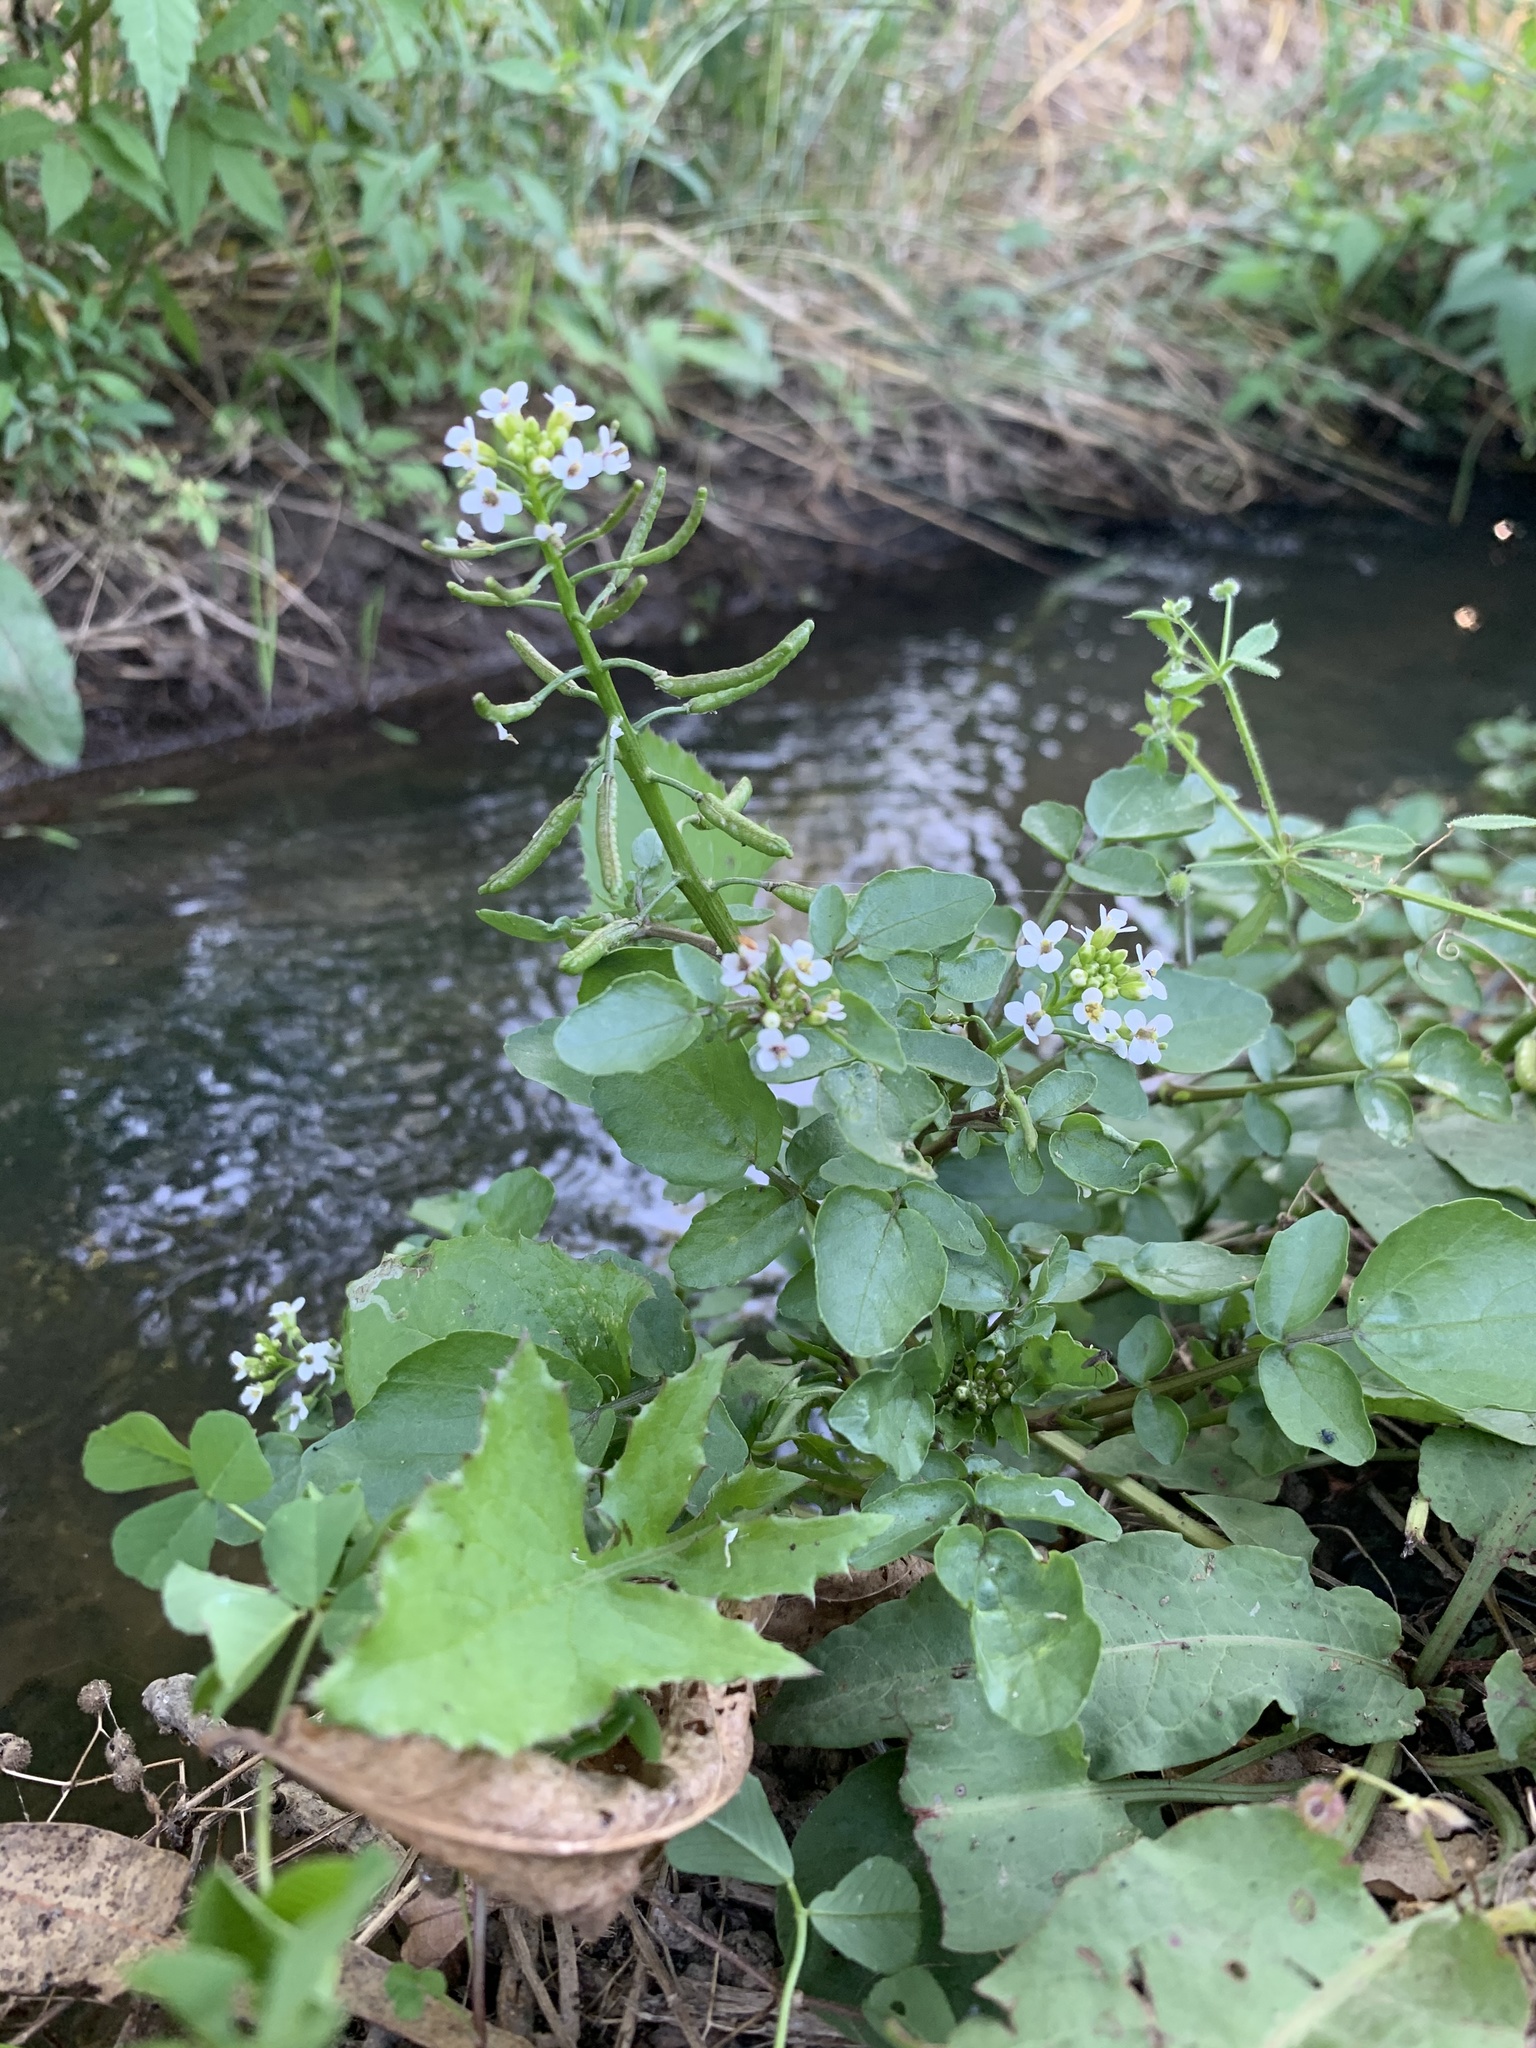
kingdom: Plantae
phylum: Tracheophyta
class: Magnoliopsida
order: Brassicales
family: Brassicaceae
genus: Nasturtium
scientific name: Nasturtium officinale
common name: Watercress
